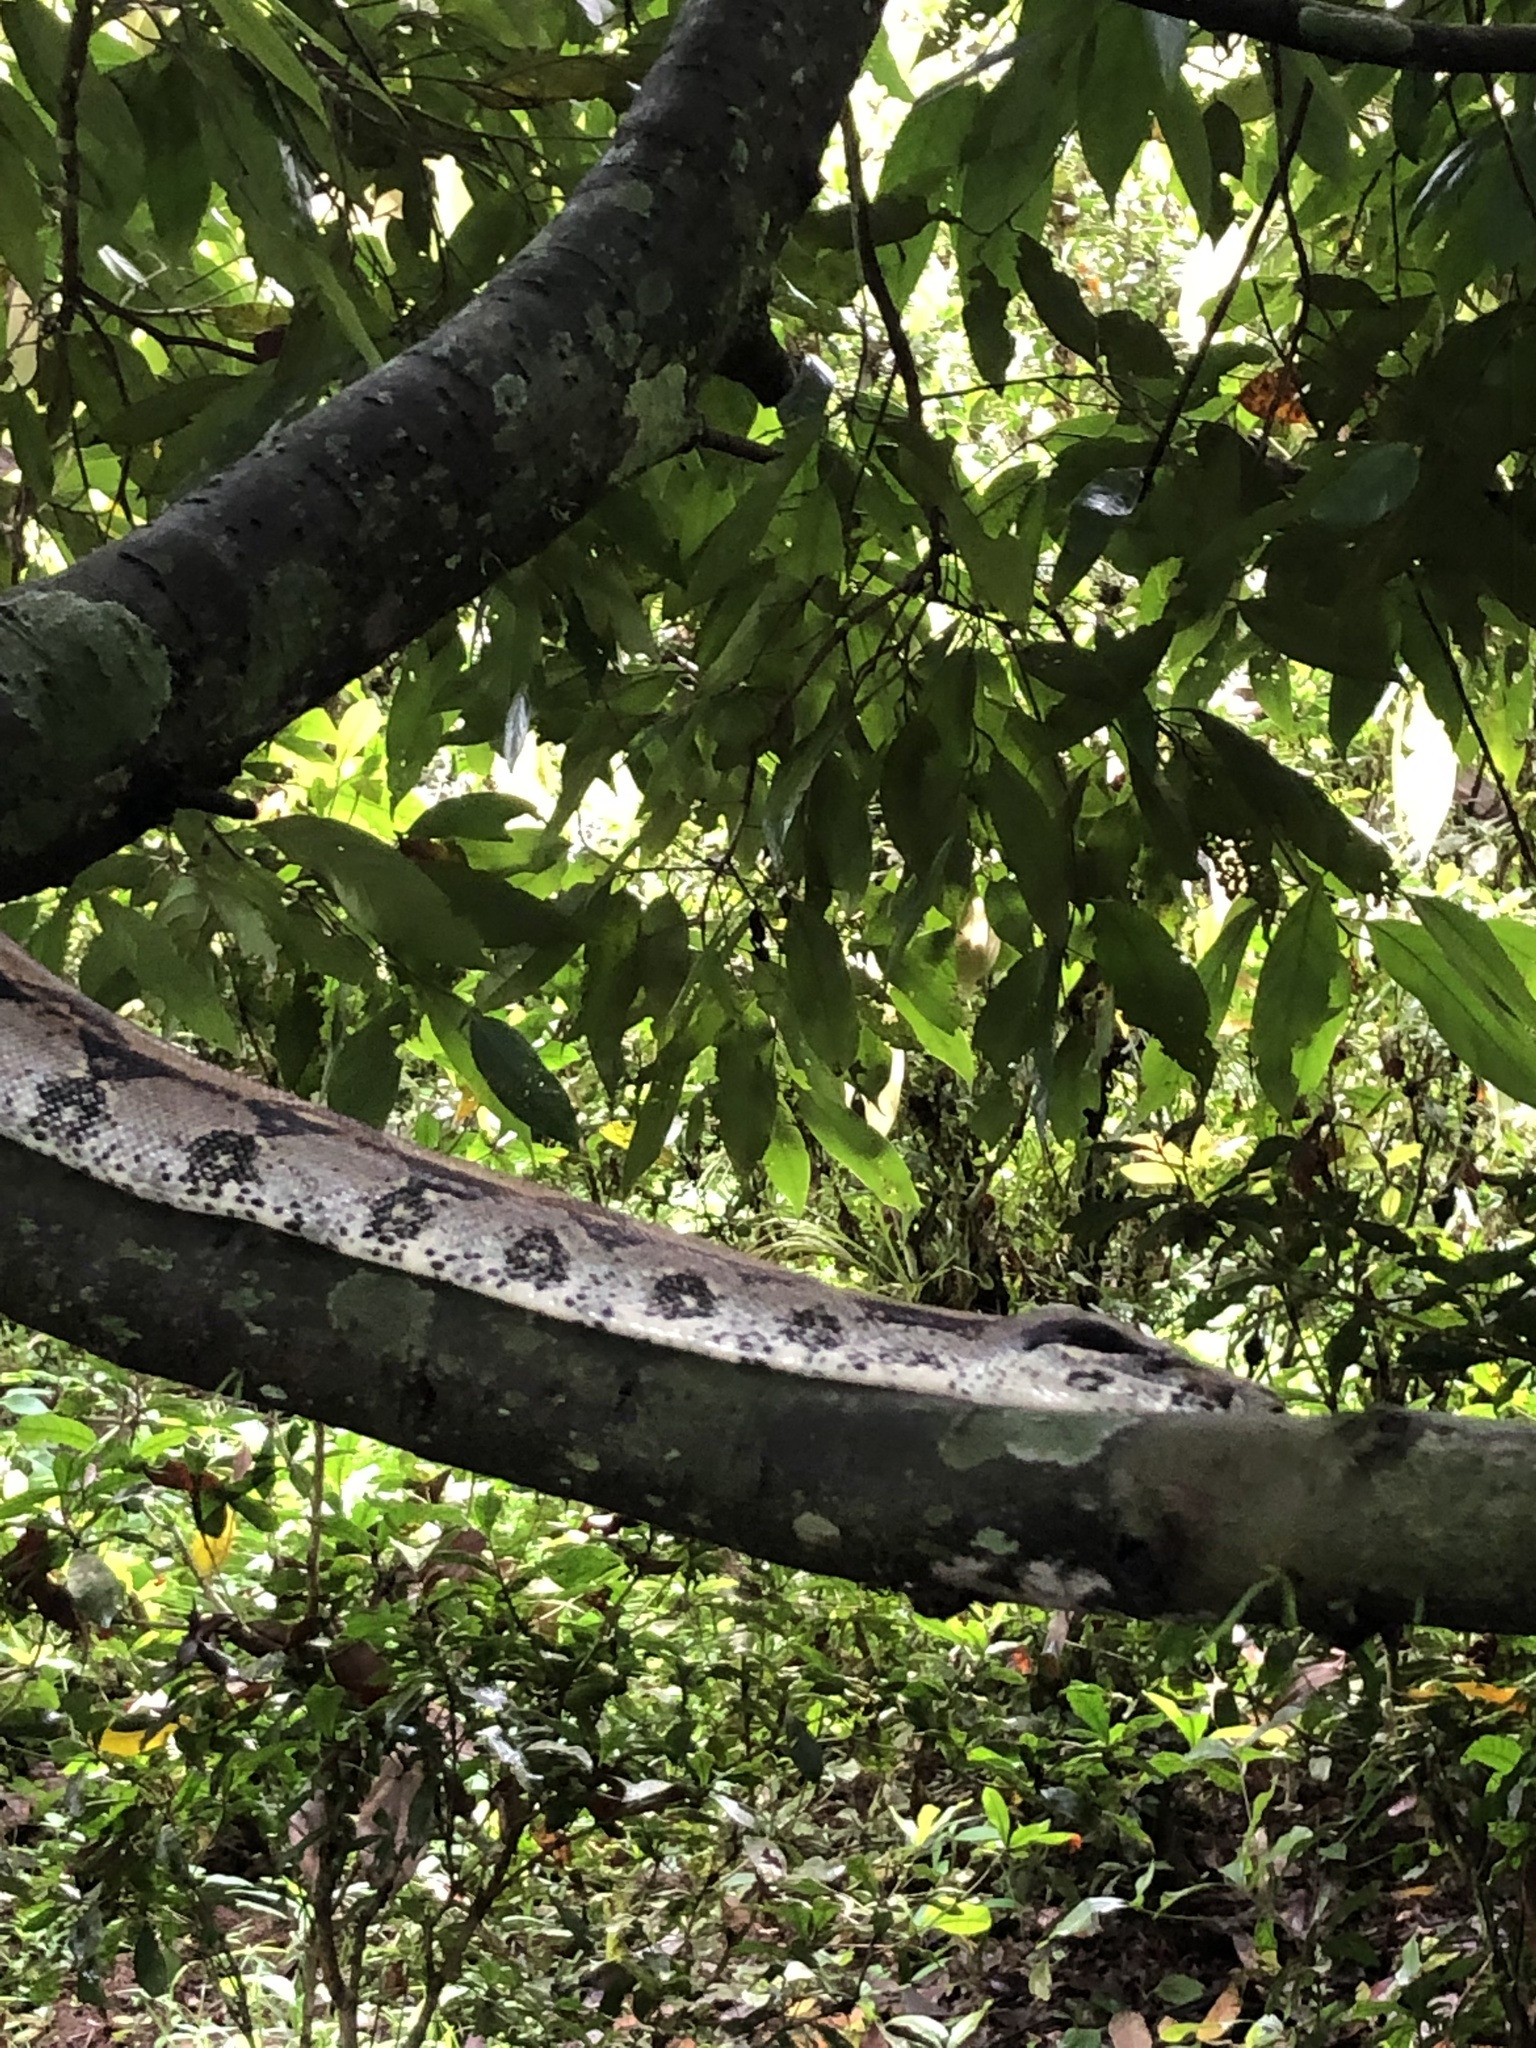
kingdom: Animalia
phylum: Chordata
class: Squamata
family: Boidae
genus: Boa
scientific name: Boa imperator
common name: Central american boa
